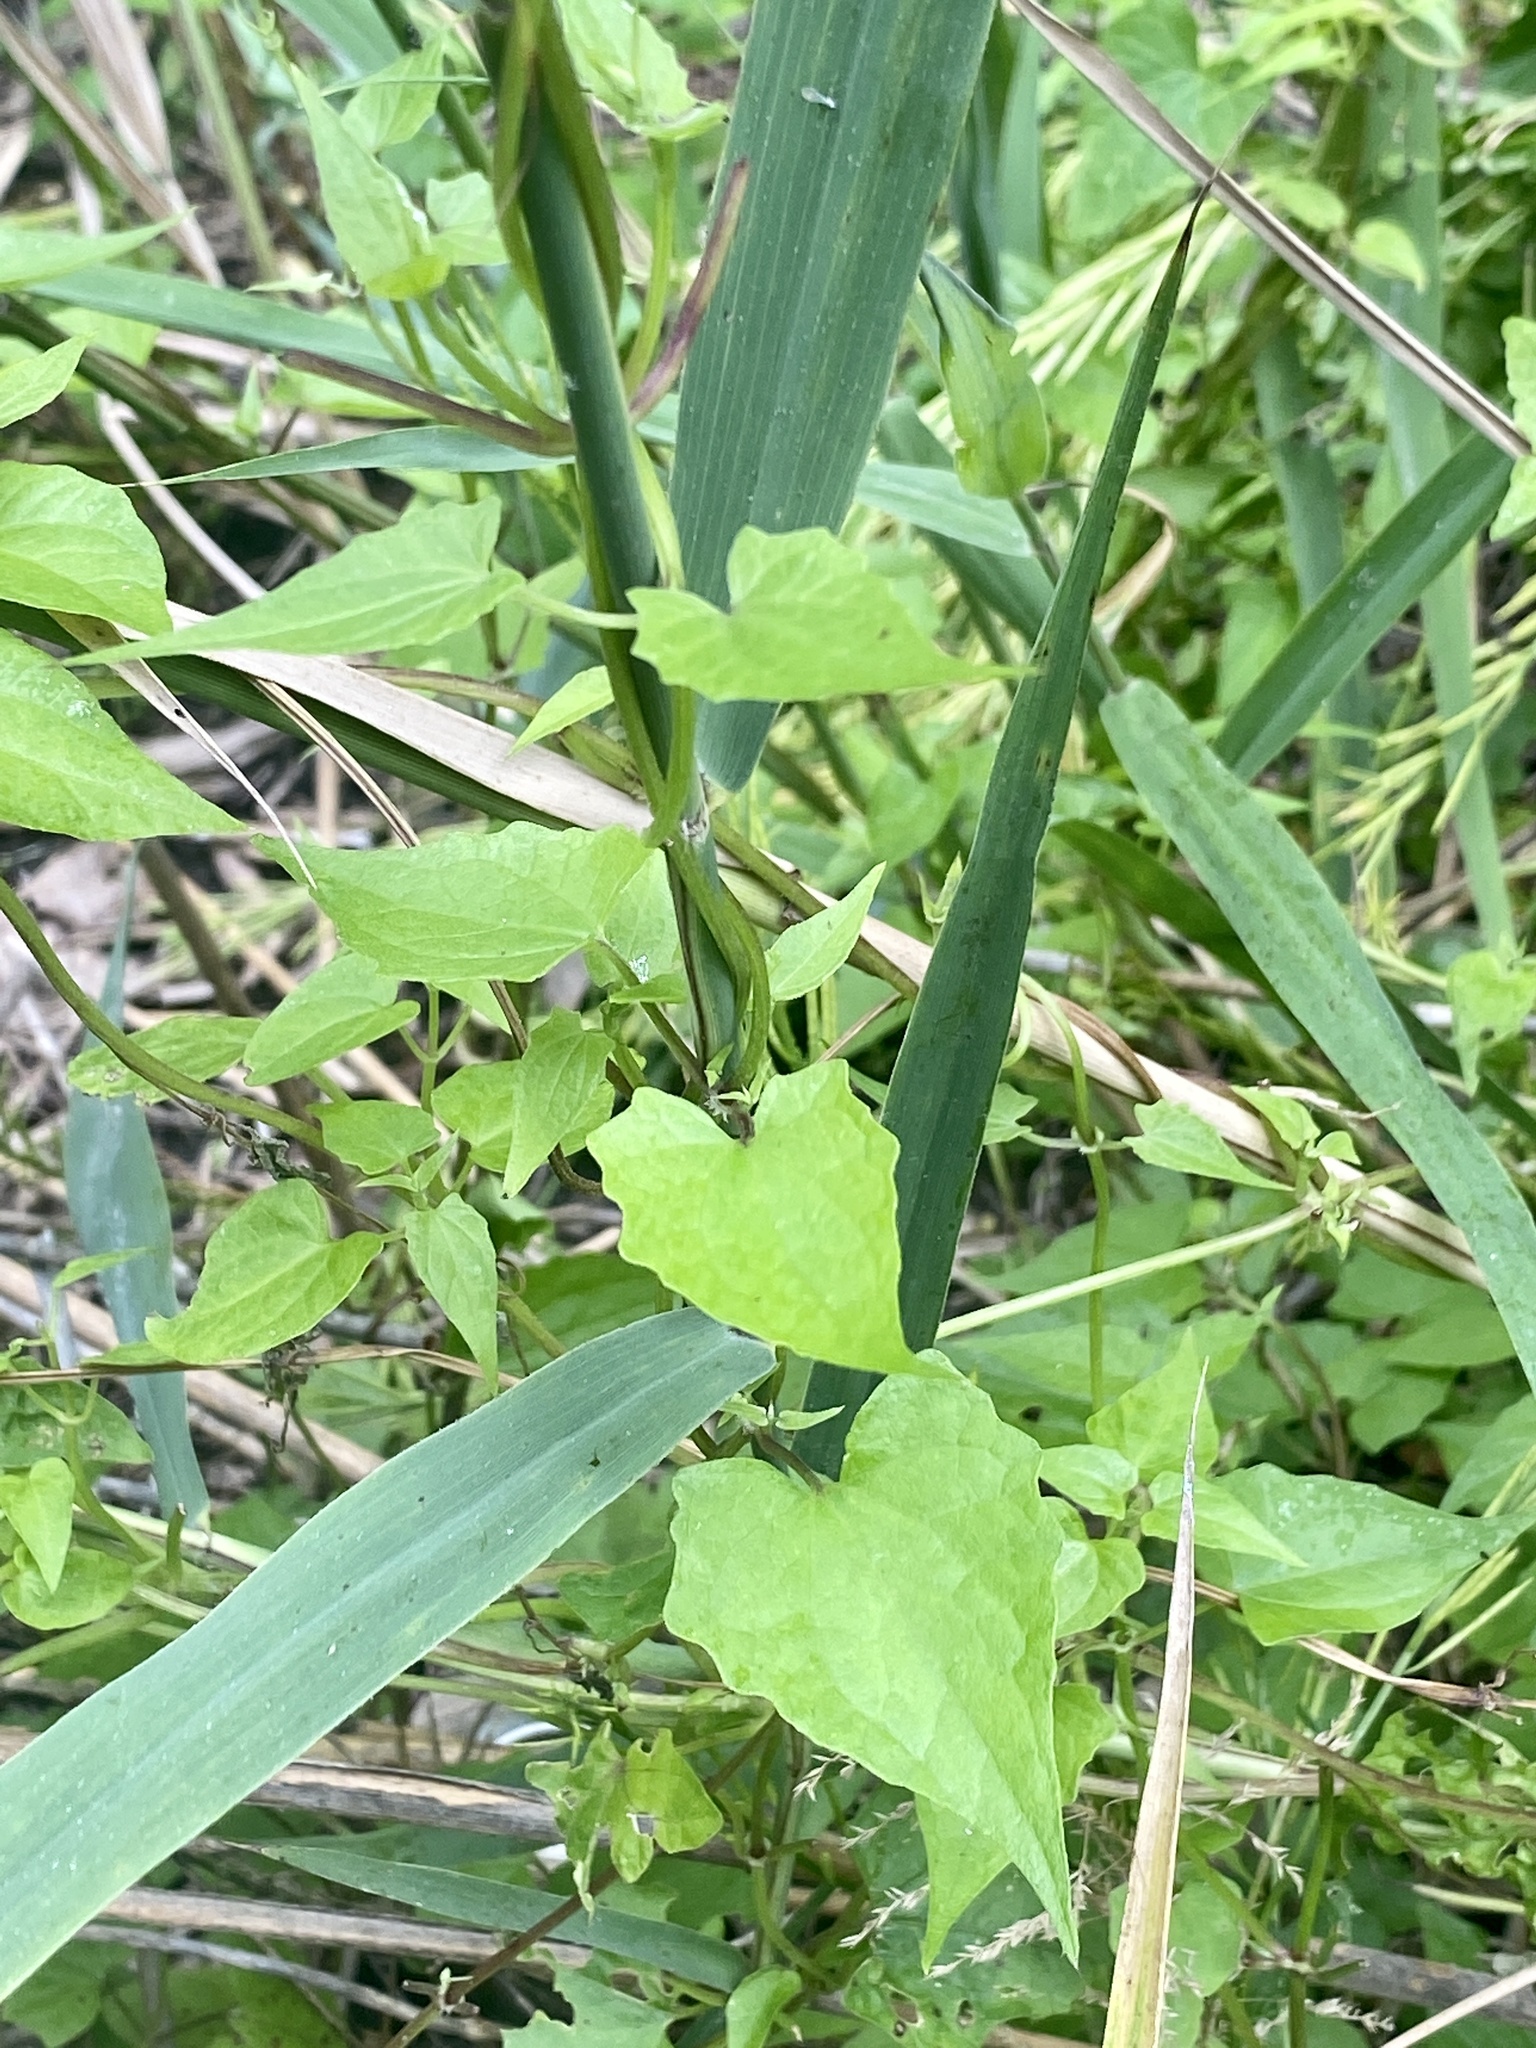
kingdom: Plantae
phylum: Tracheophyta
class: Magnoliopsida
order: Asterales
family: Asteraceae
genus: Mikania
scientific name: Mikania scandens
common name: Climbing hempvine
